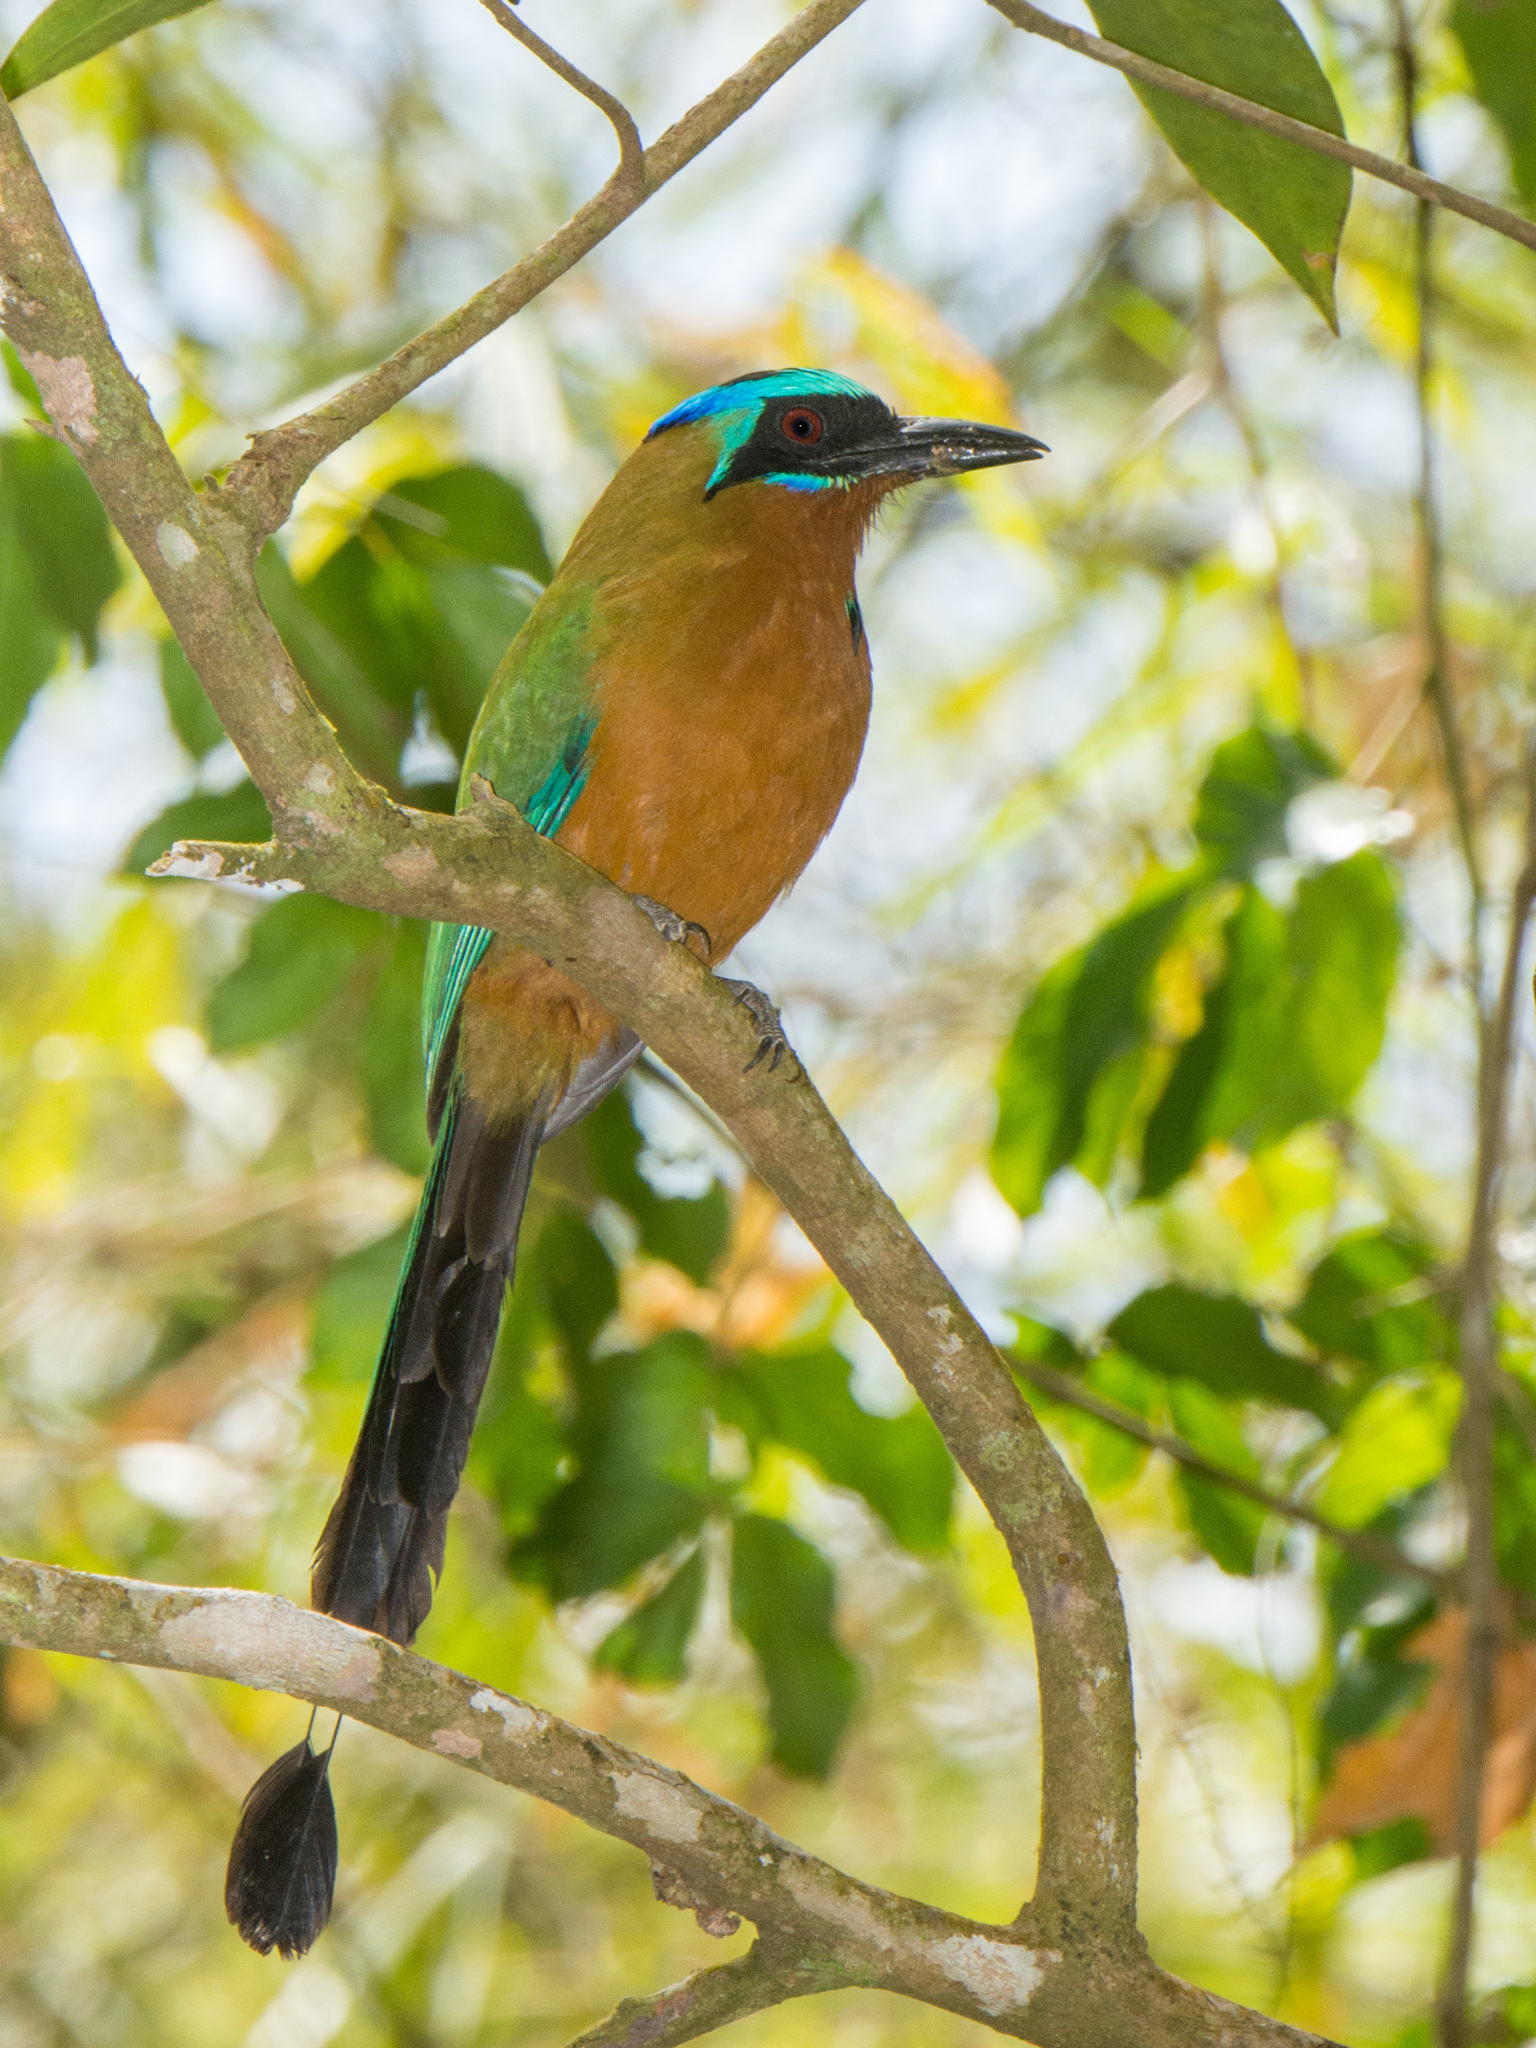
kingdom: Animalia
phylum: Chordata
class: Aves
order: Coraciiformes
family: Momotidae
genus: Momotus
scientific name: Momotus bahamensis
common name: Trinidad motmot
